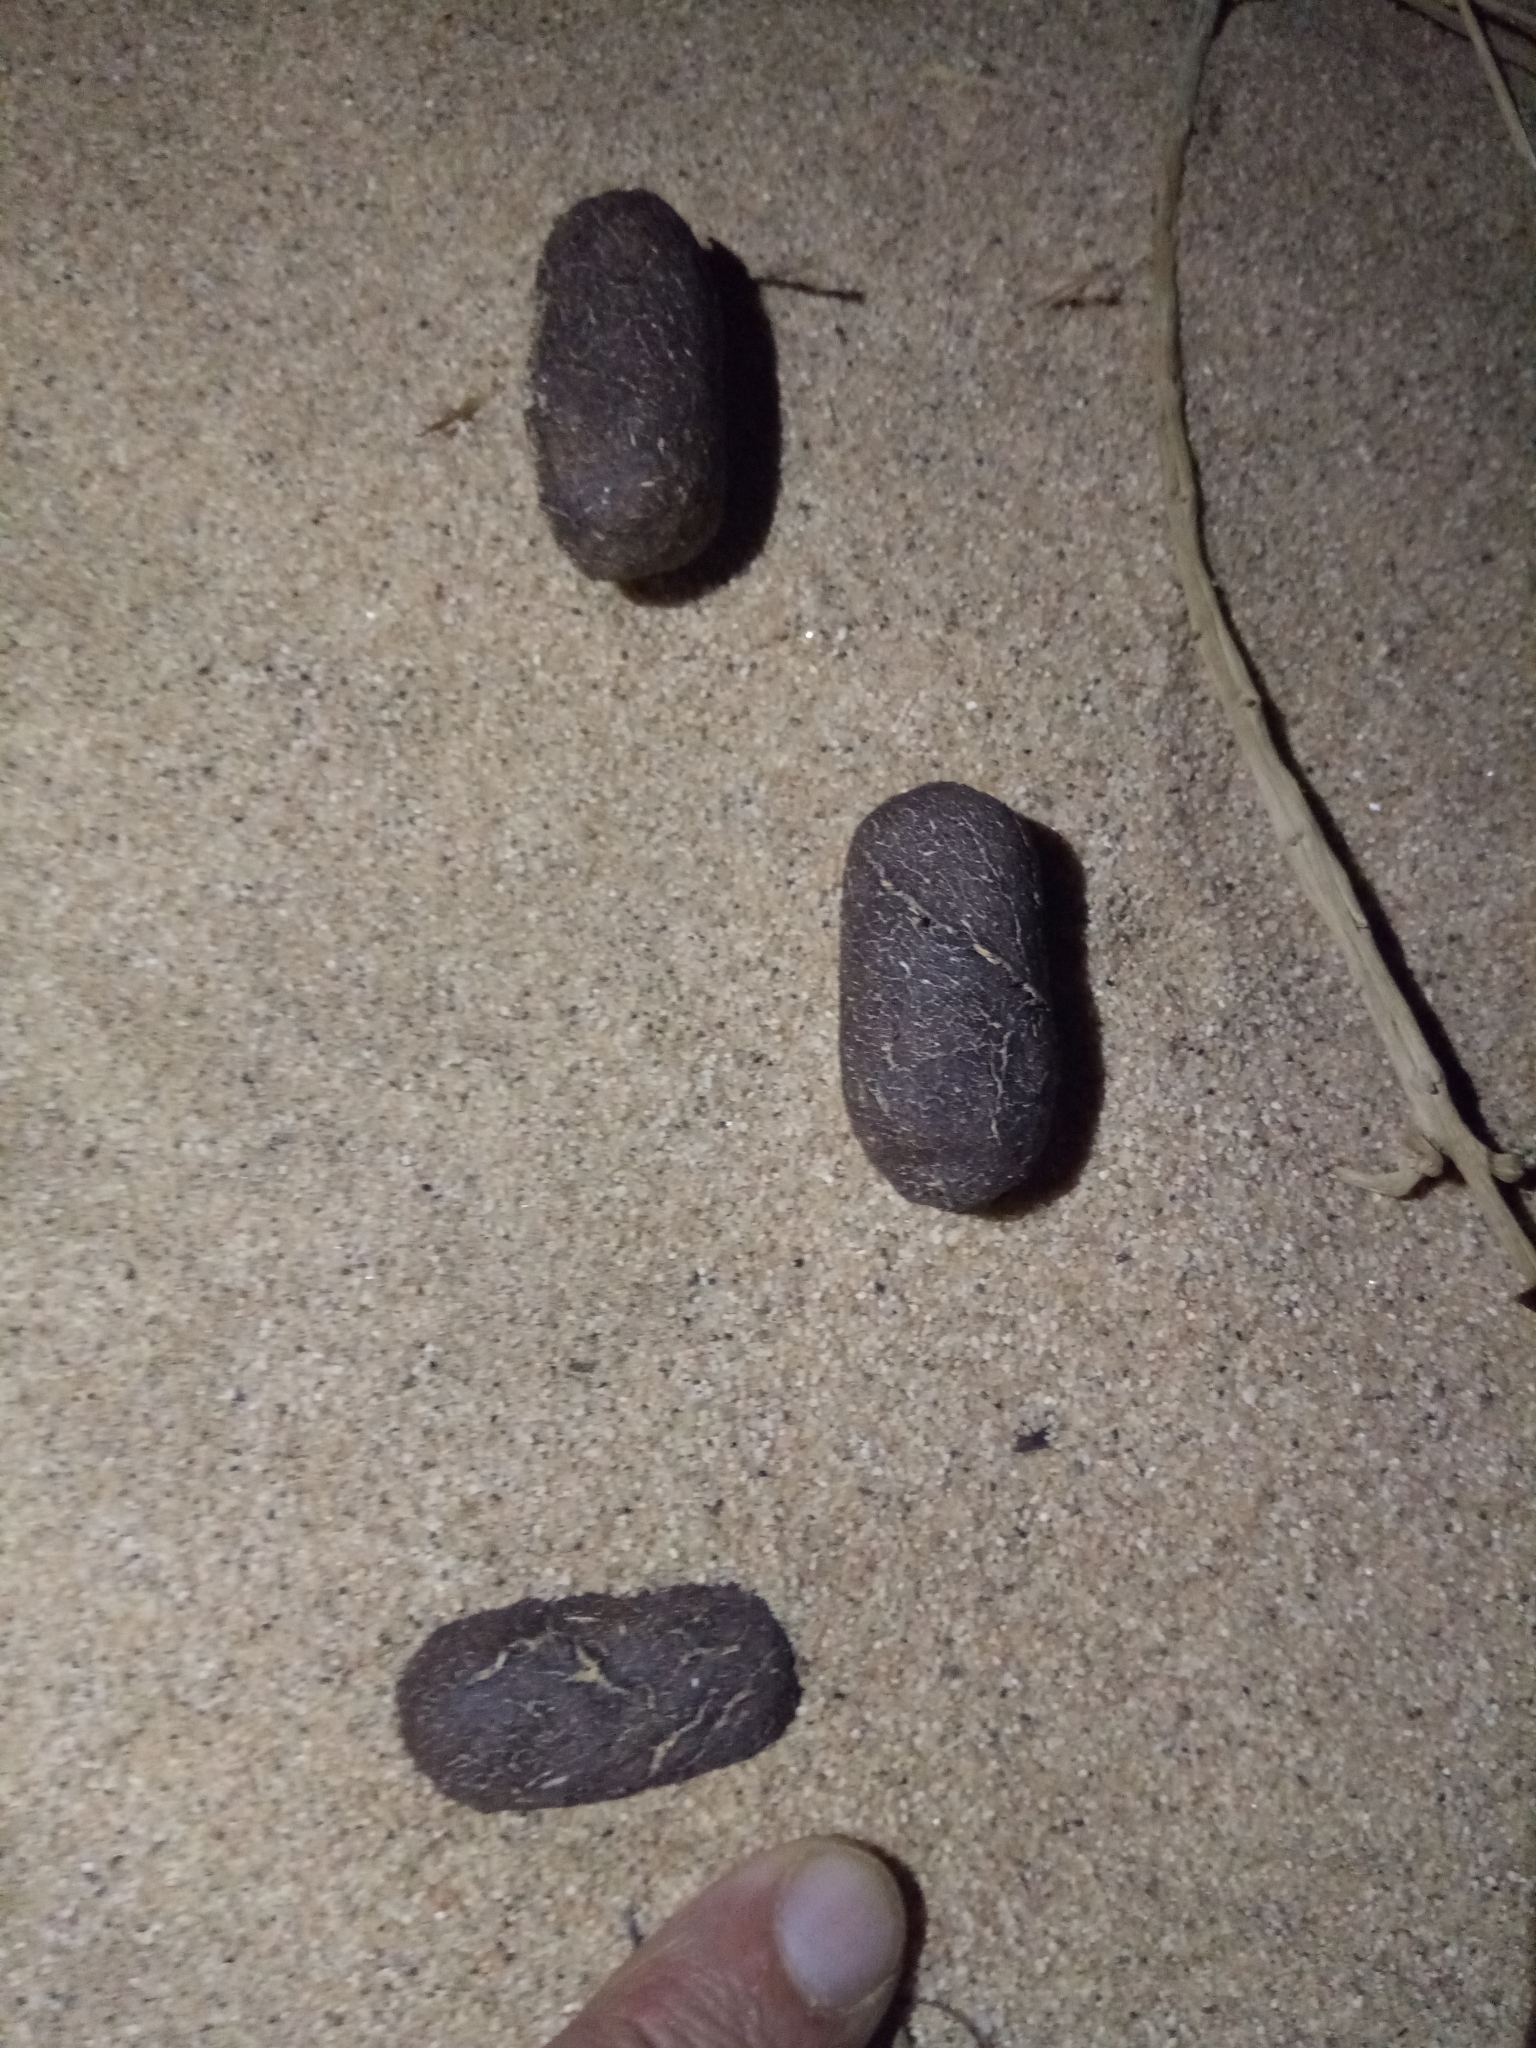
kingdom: Animalia
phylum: Chordata
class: Mammalia
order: Artiodactyla
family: Camelidae
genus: Camelus
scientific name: Camelus dromedarius
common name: One-humped camel
